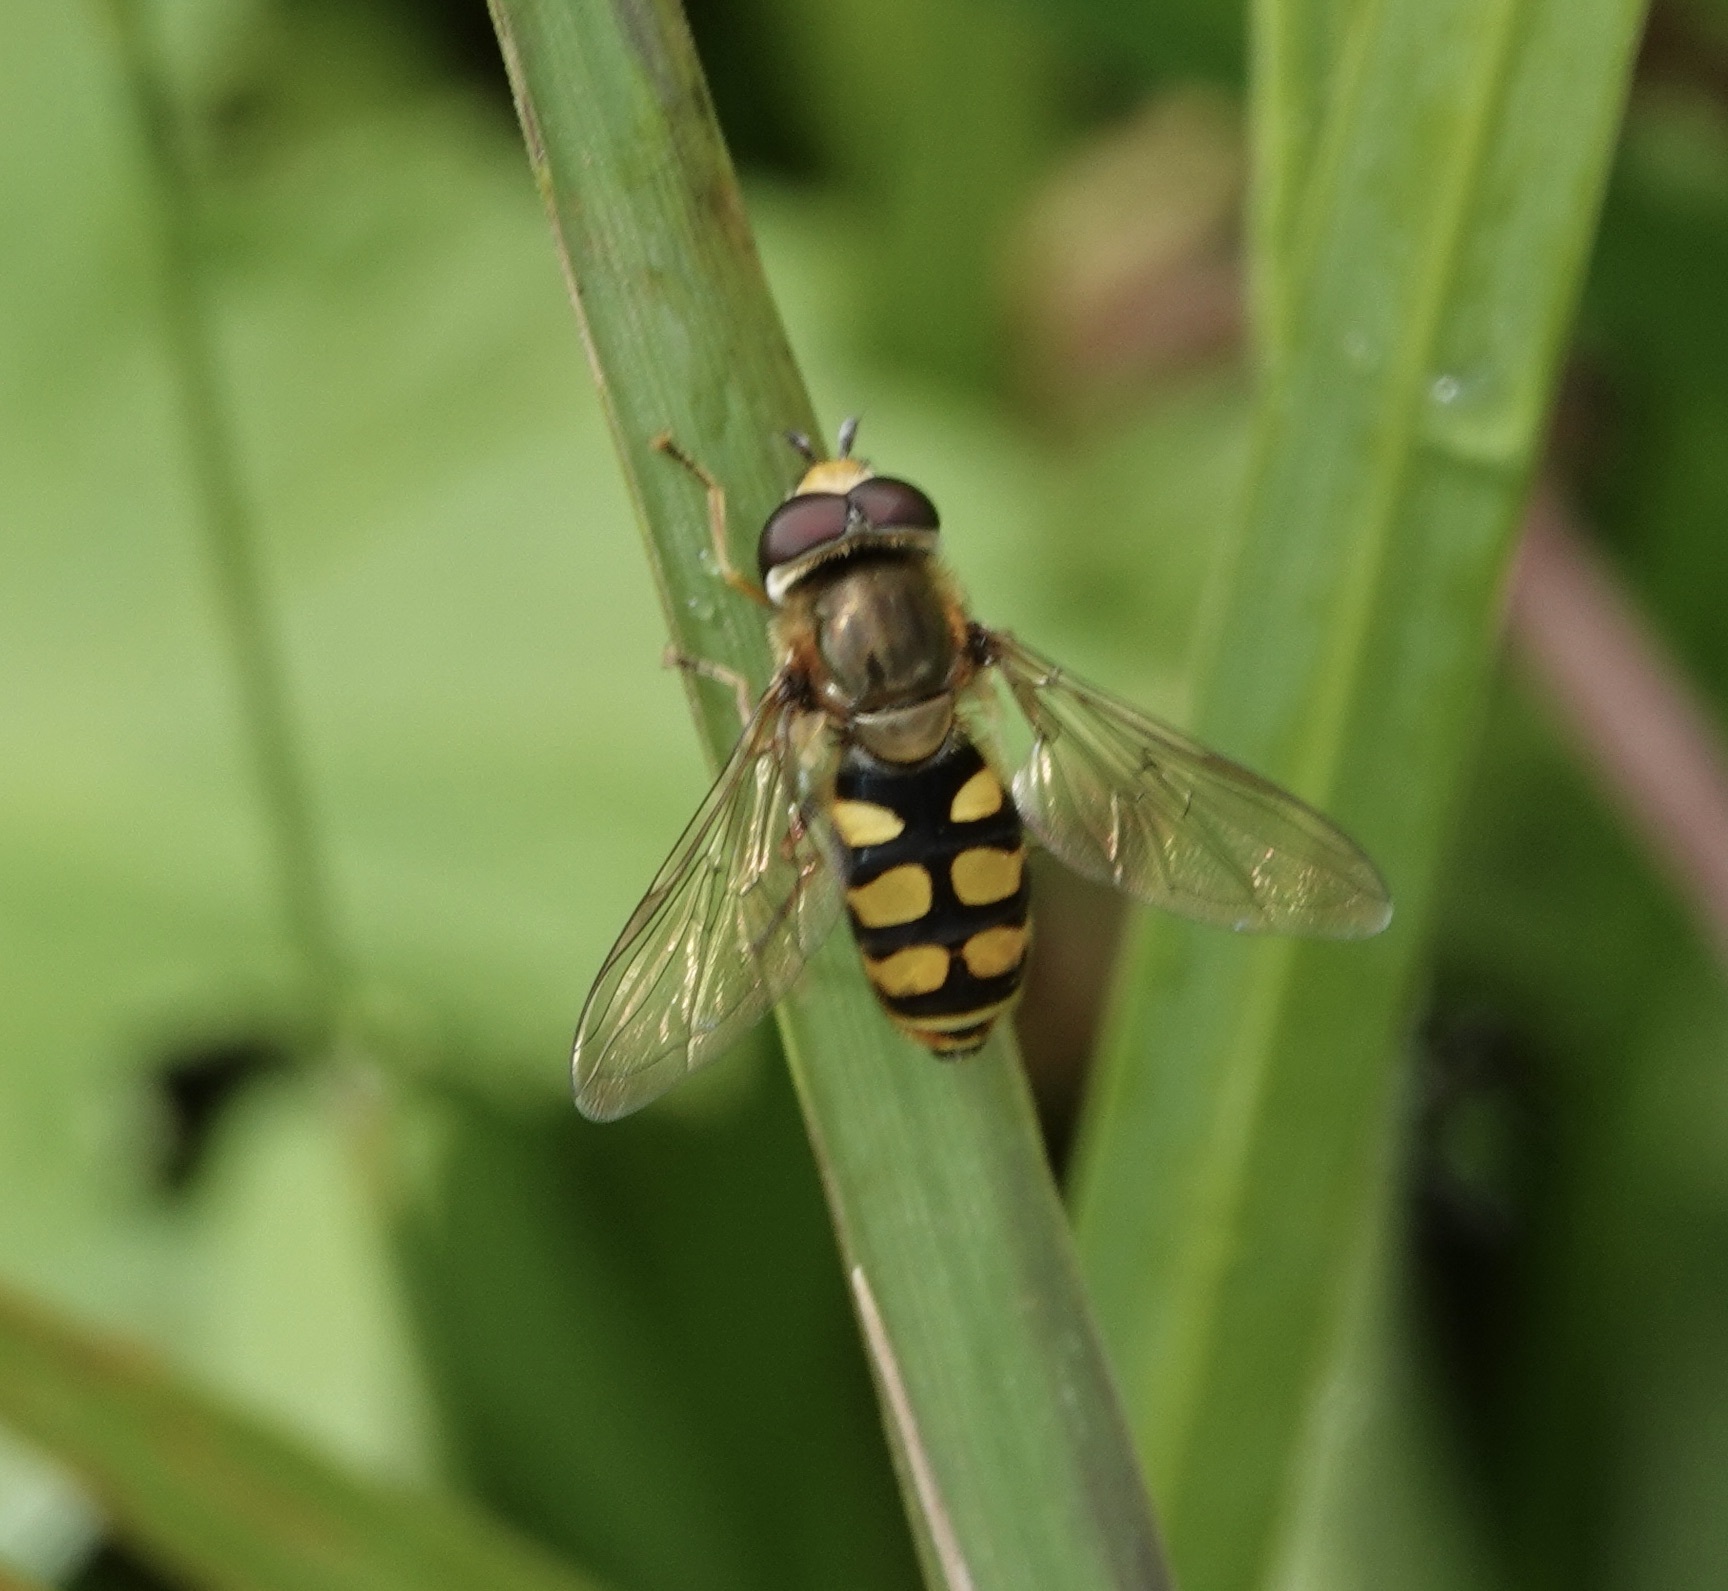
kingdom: Animalia
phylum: Arthropoda
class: Insecta
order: Diptera
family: Syrphidae
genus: Eupeodes
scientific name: Eupeodes corollae
